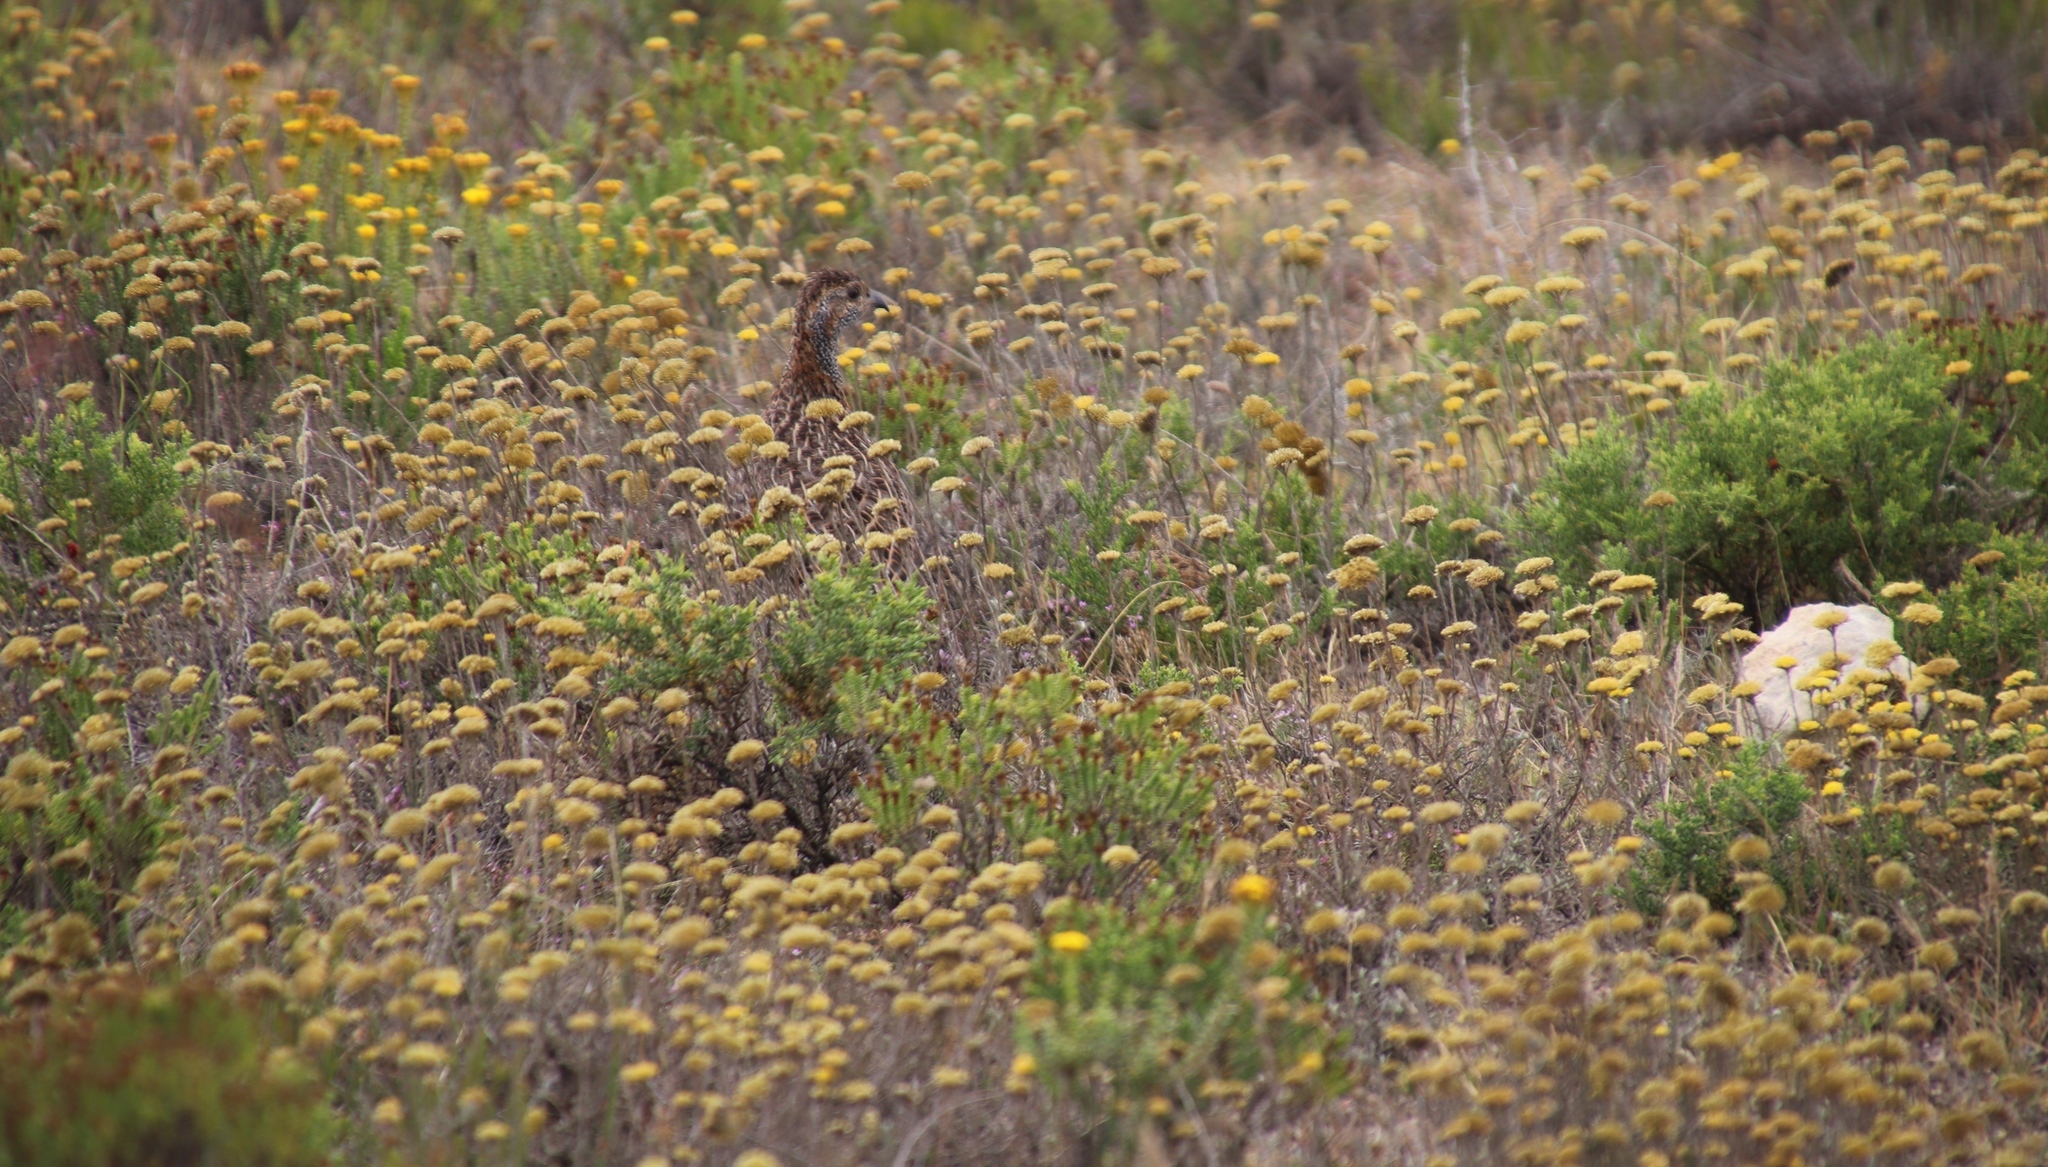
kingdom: Animalia
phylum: Chordata
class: Aves
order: Galliformes
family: Phasianidae
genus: Scleroptila
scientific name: Scleroptila afra
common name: Grey-winged francolin
